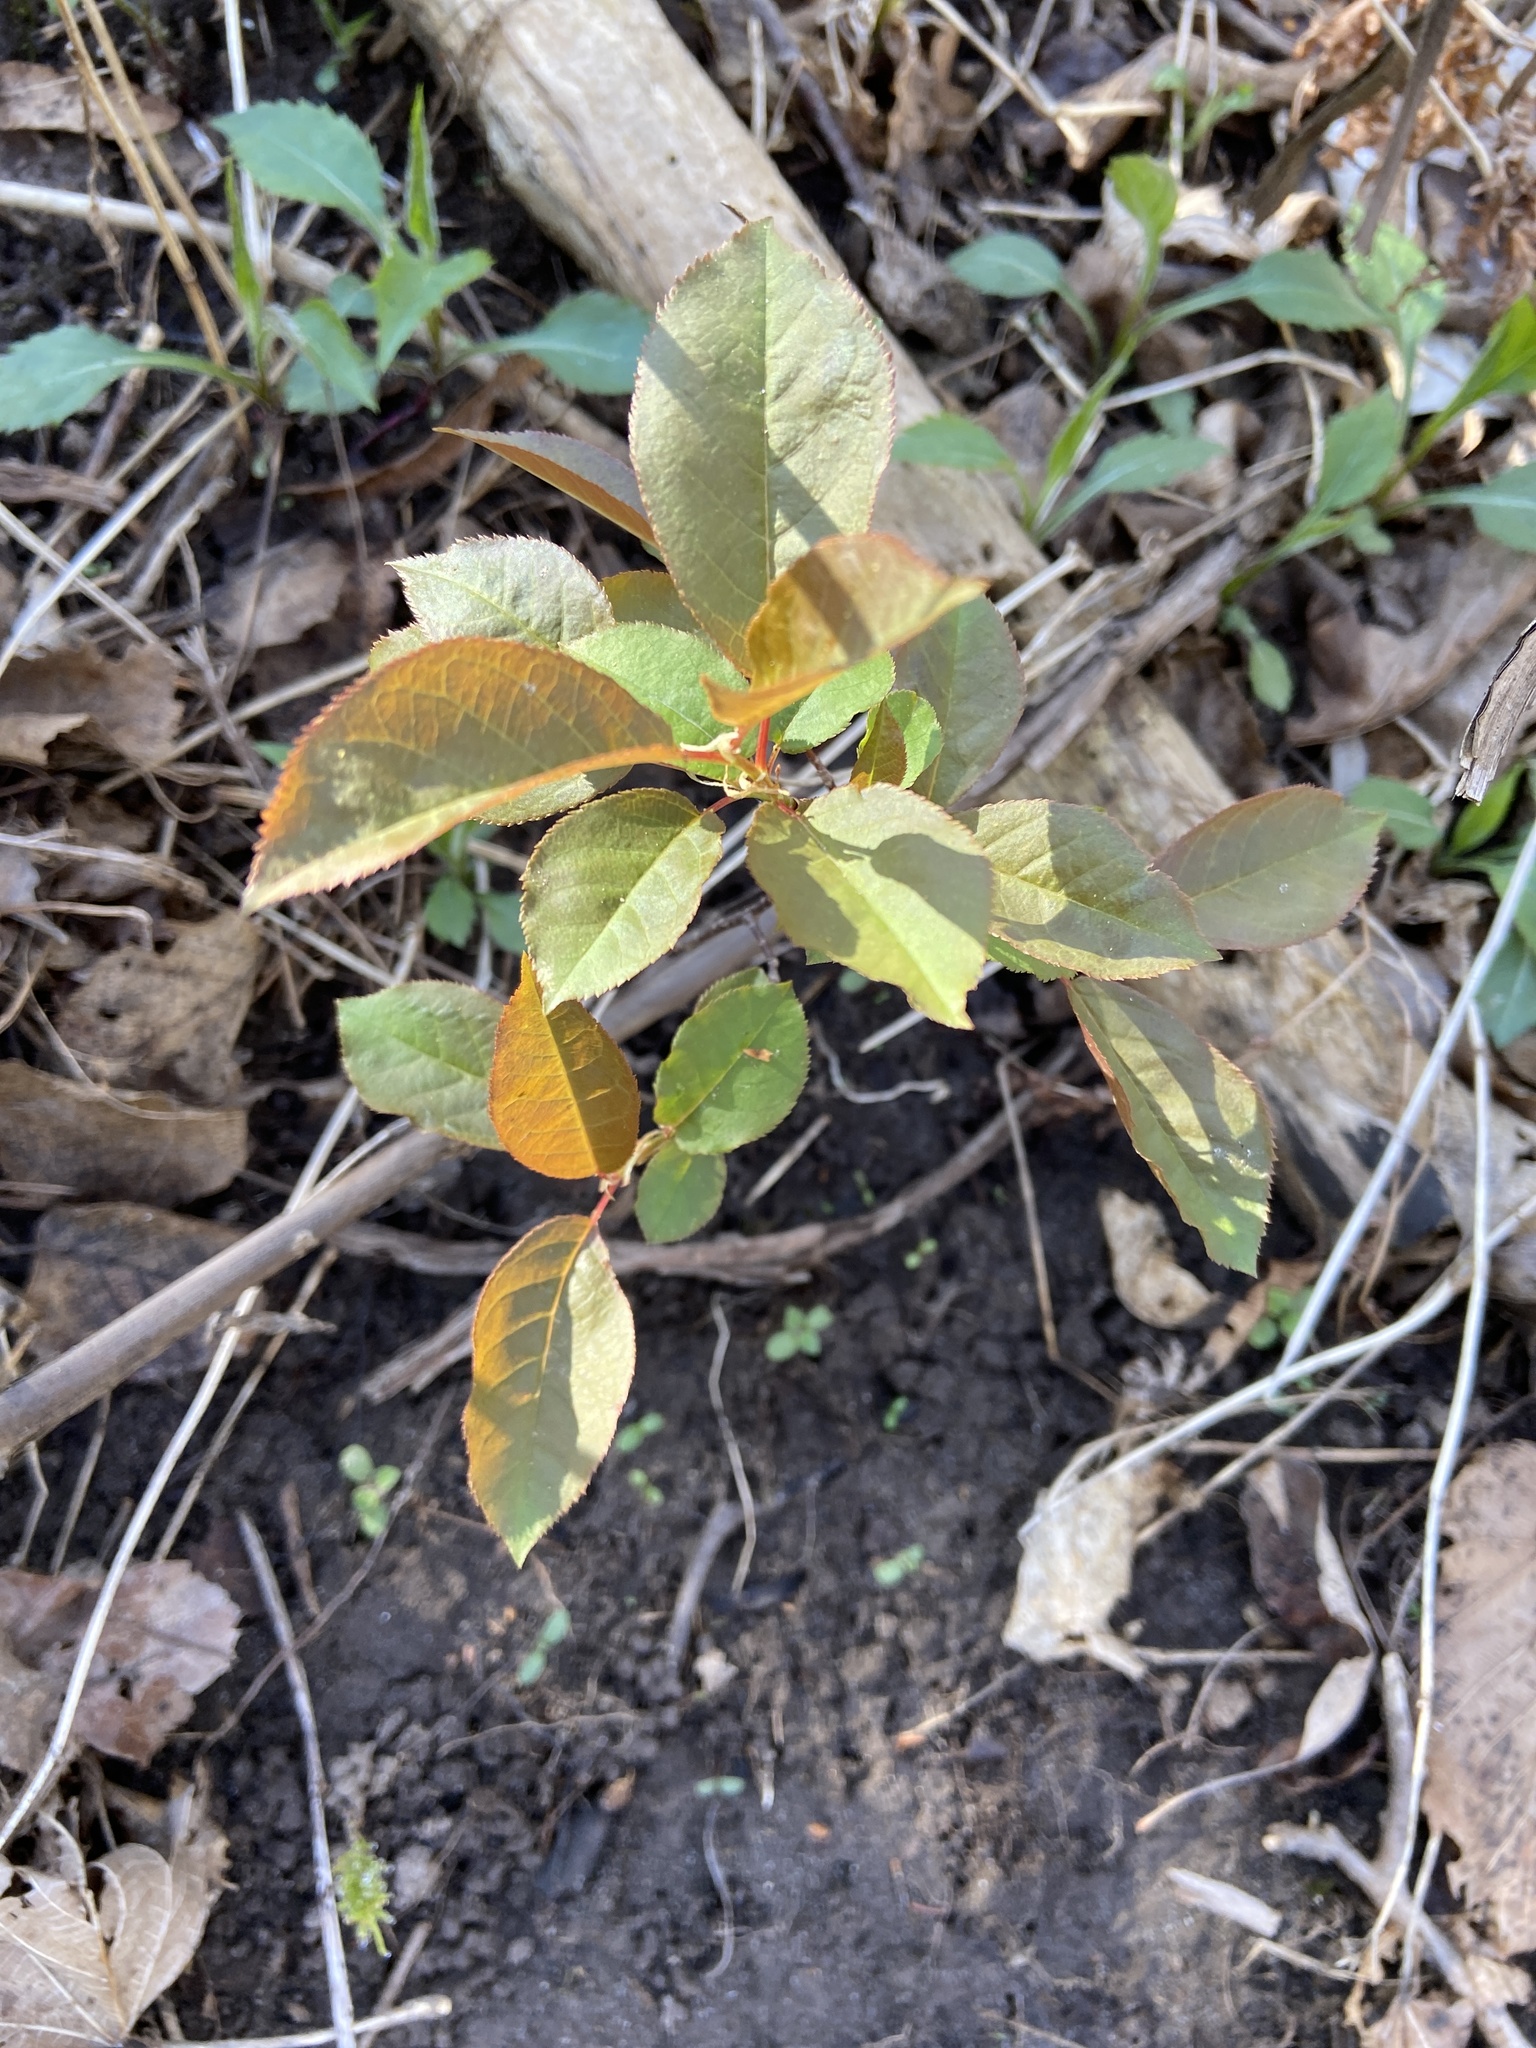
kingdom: Plantae
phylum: Tracheophyta
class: Magnoliopsida
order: Rosales
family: Rosaceae
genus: Prunus
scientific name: Prunus virginiana
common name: Chokecherry
